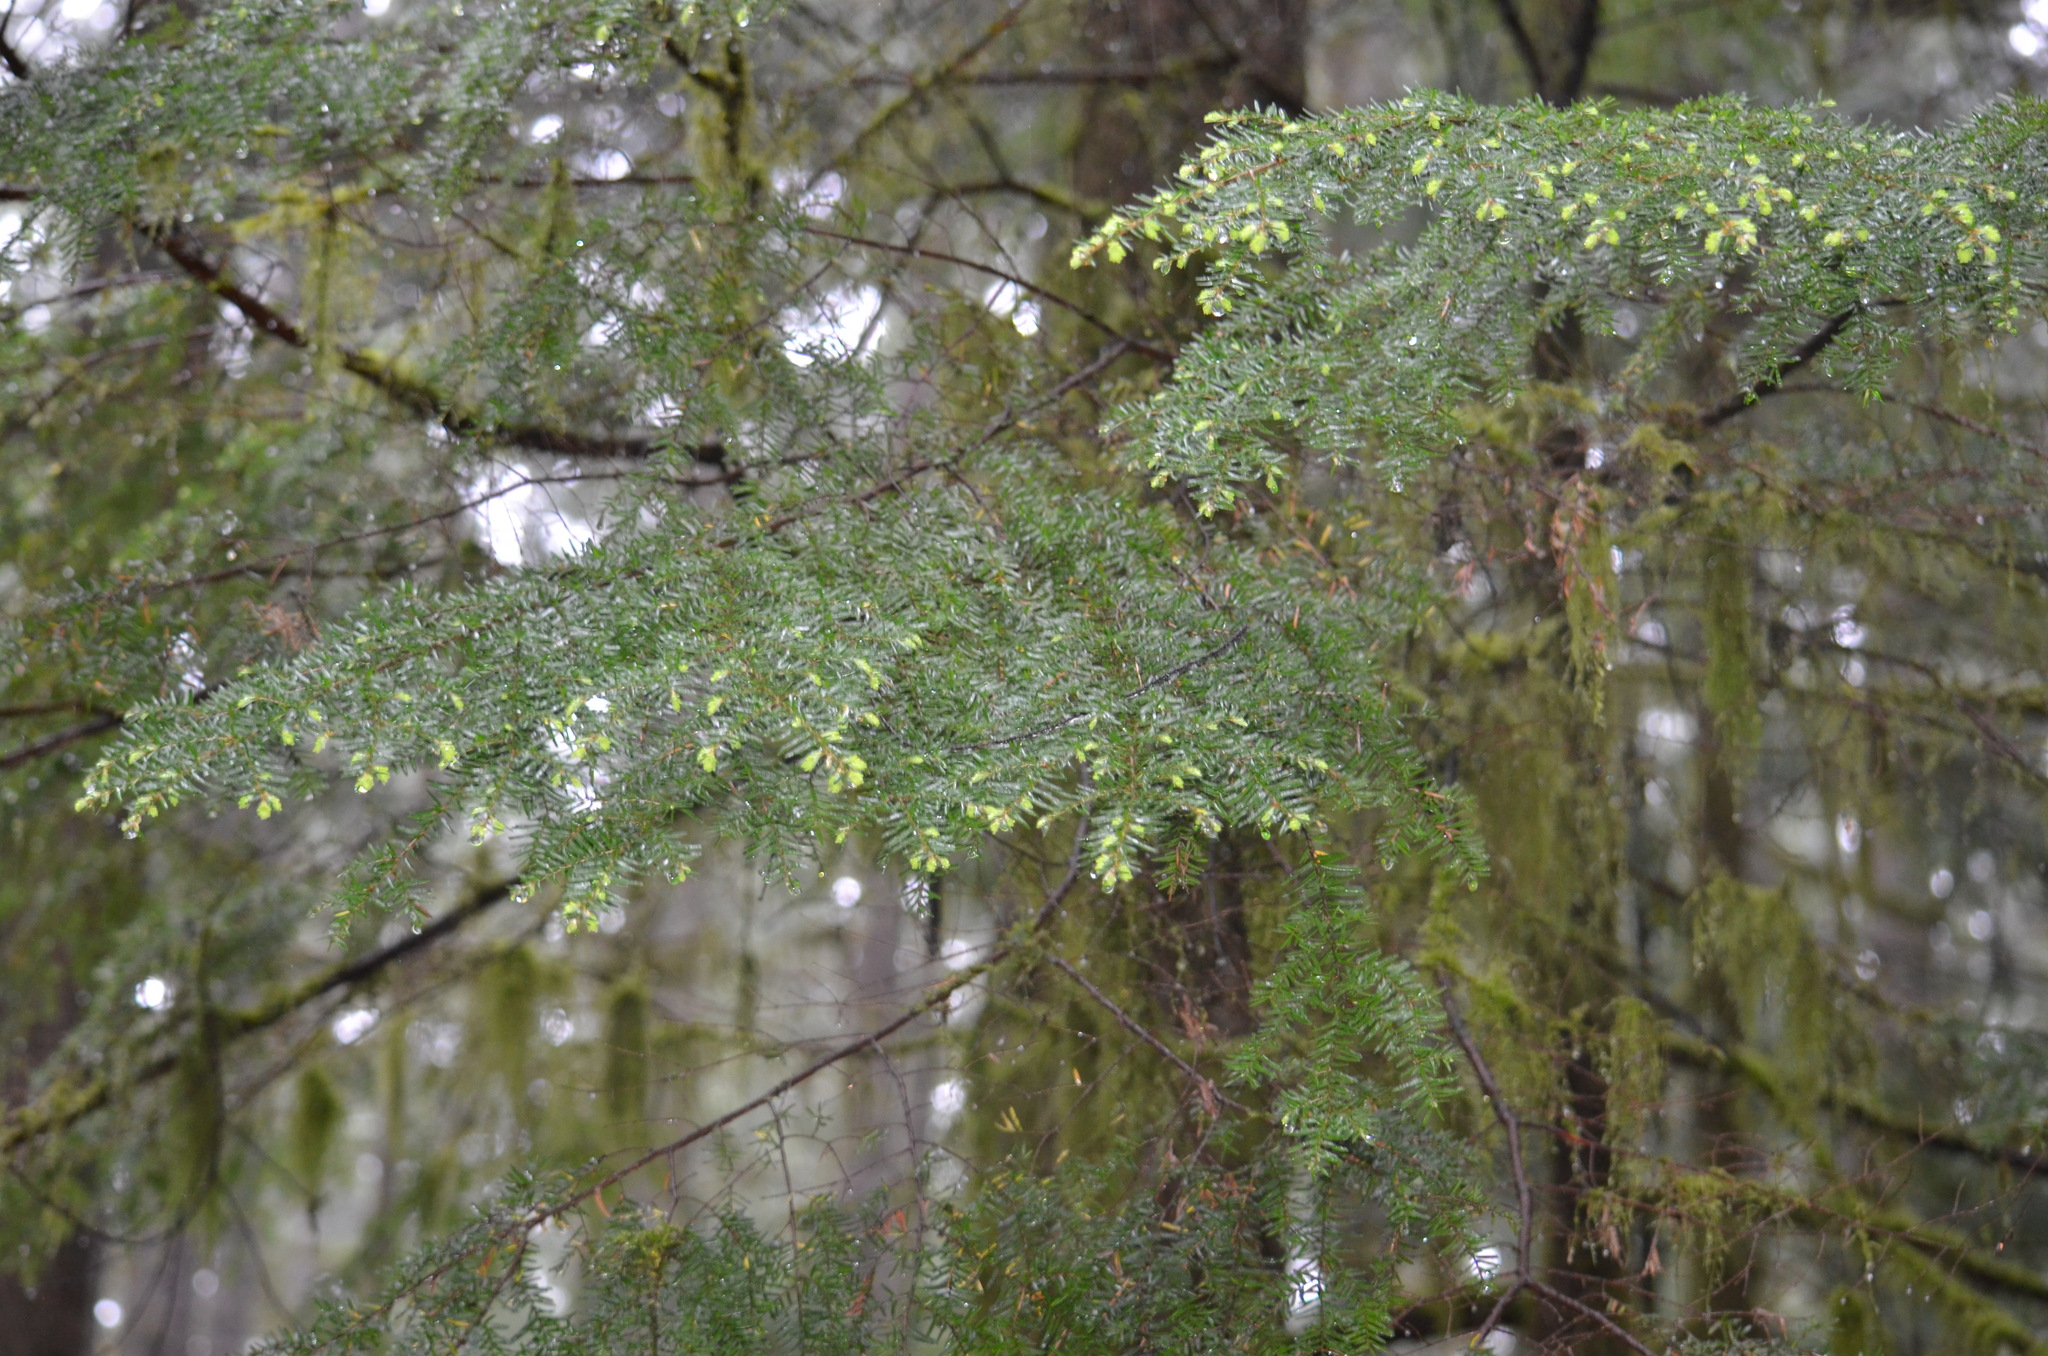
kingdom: Plantae
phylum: Tracheophyta
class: Pinopsida
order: Pinales
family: Pinaceae
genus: Tsuga
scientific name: Tsuga heterophylla
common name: Western hemlock
